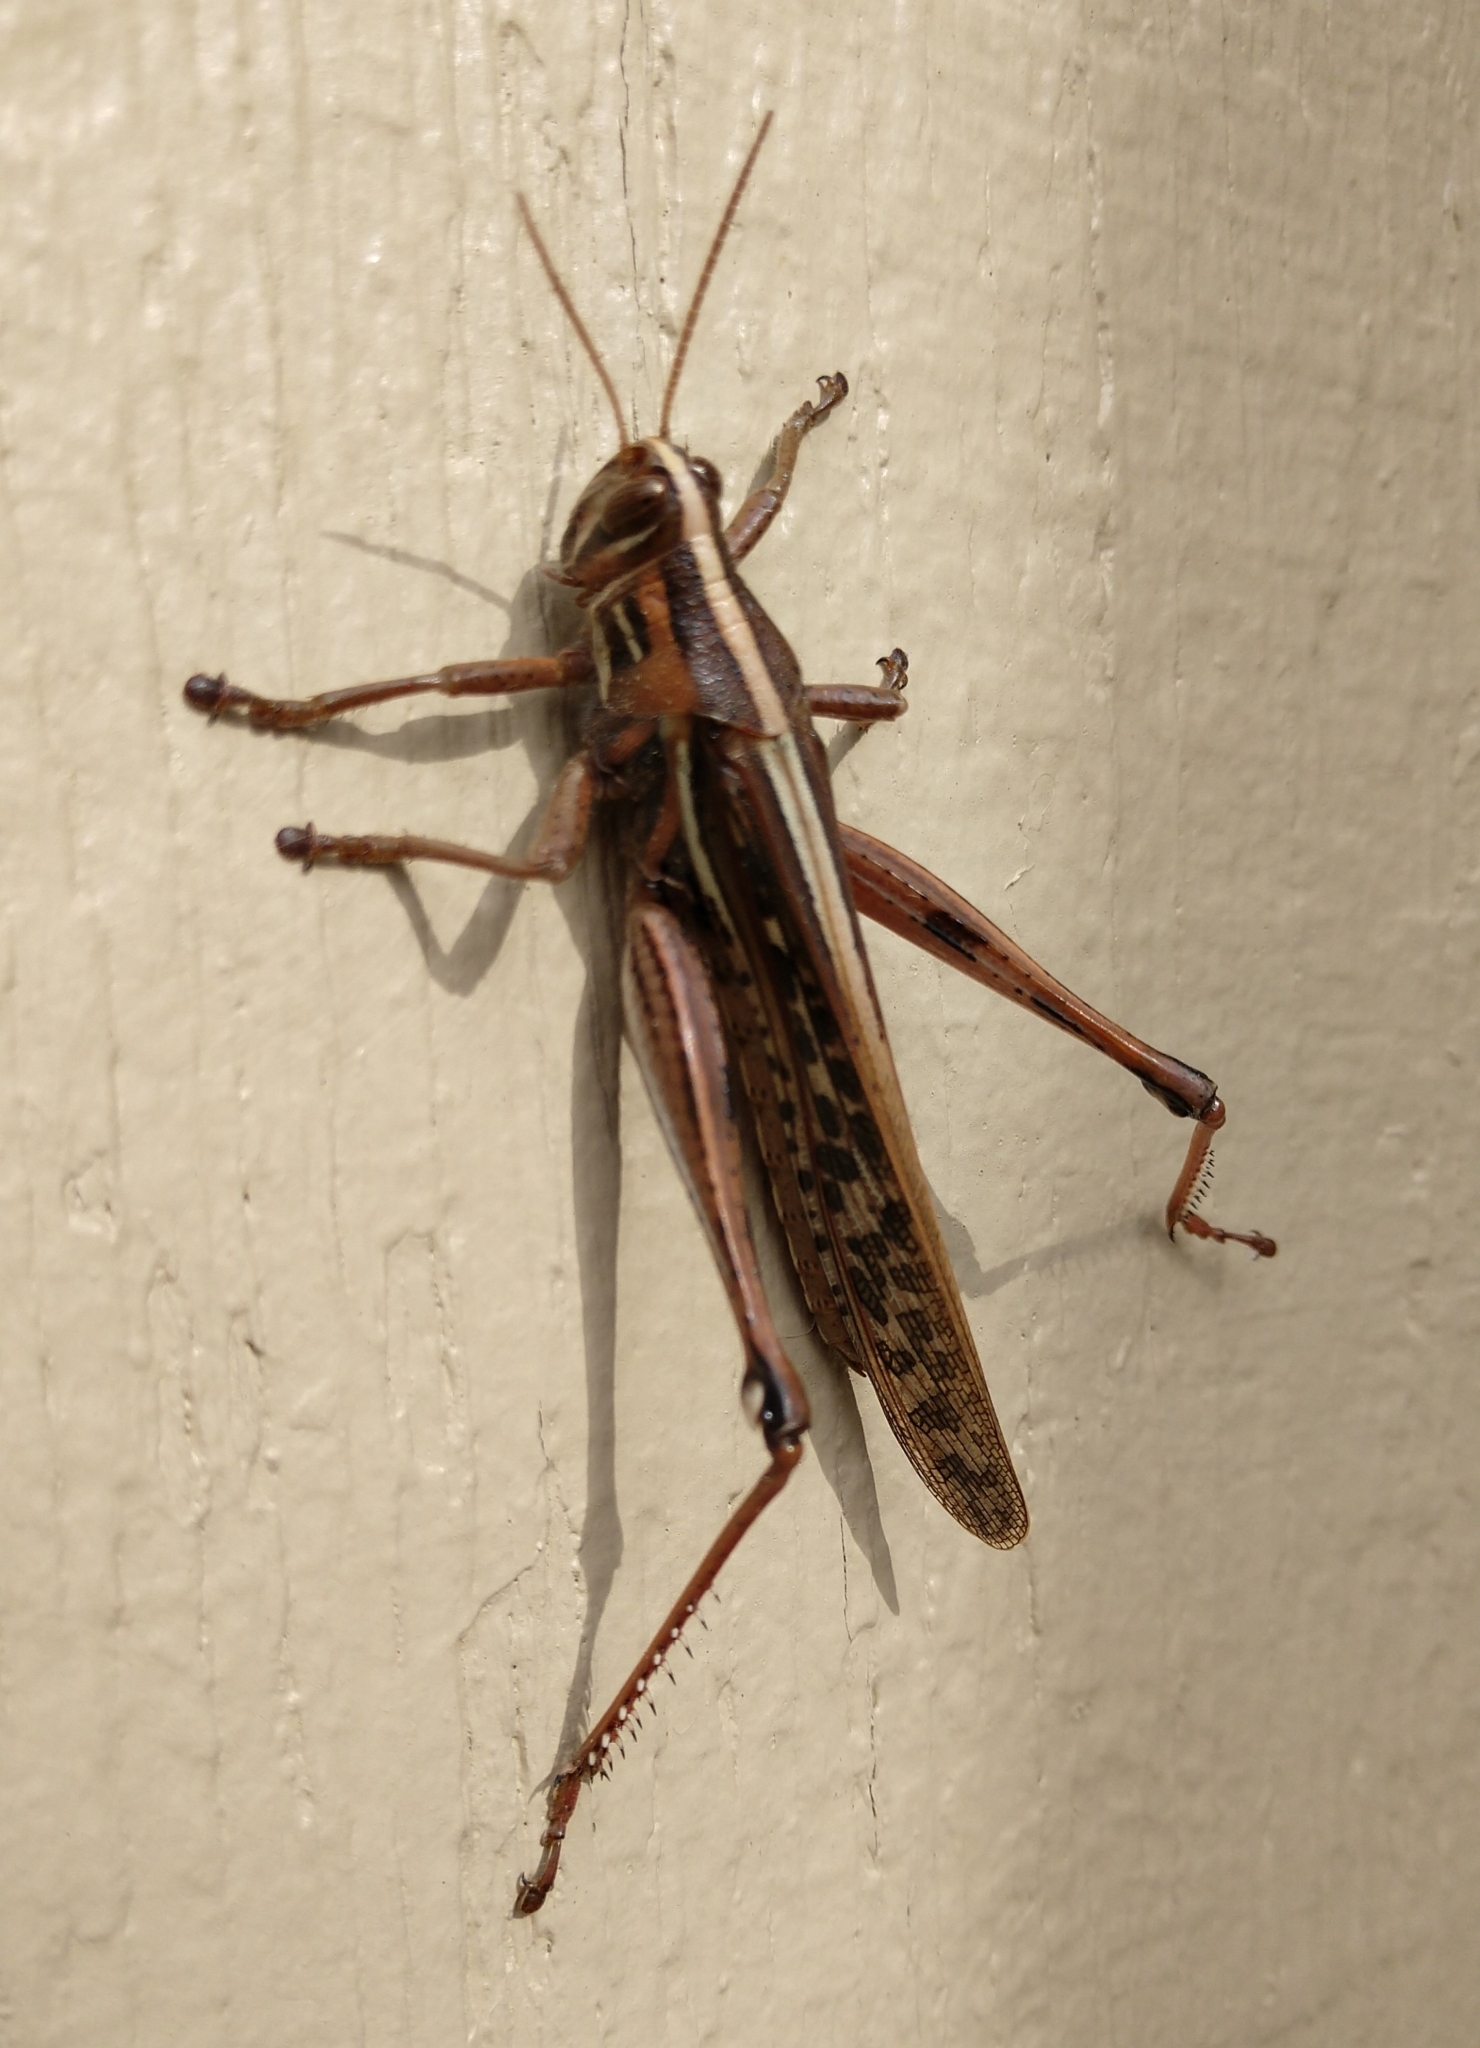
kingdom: Animalia
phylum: Arthropoda
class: Insecta
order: Orthoptera
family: Acrididae
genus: Schistocerca
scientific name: Schistocerca americana
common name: American bird locust
